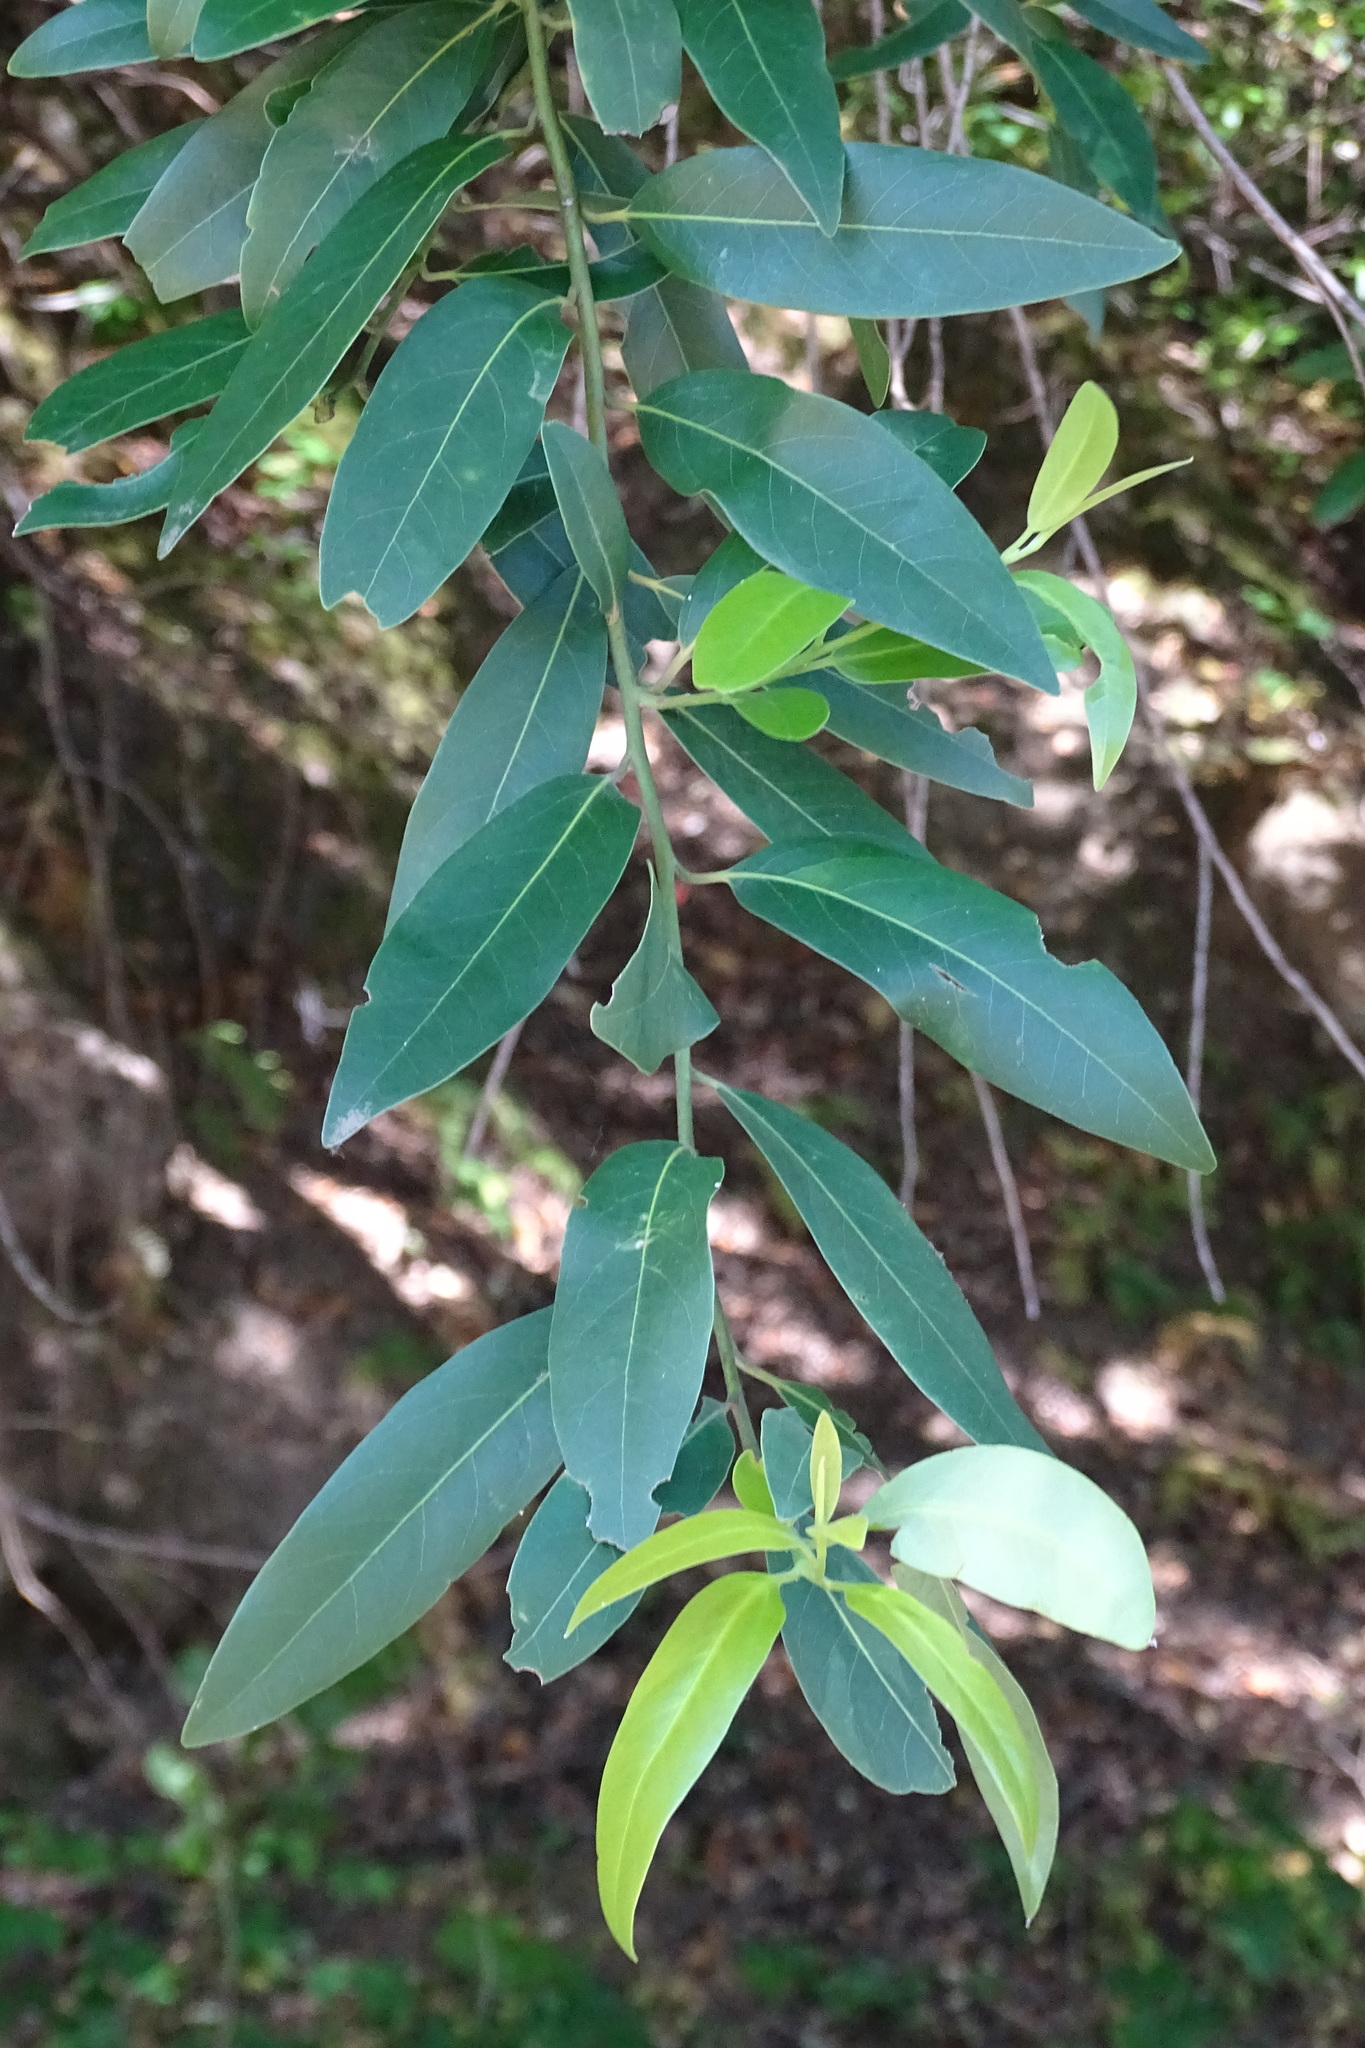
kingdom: Plantae
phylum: Tracheophyta
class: Magnoliopsida
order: Laurales
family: Lauraceae
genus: Umbellularia
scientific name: Umbellularia californica
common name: California bay
